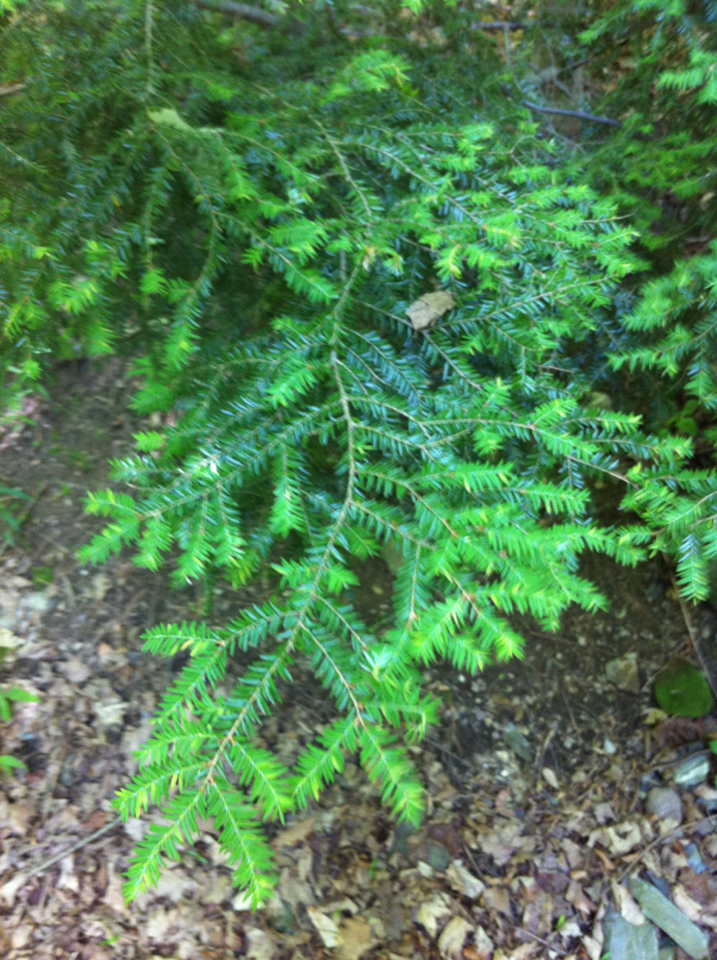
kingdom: Plantae
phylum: Tracheophyta
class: Pinopsida
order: Pinales
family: Pinaceae
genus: Tsuga
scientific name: Tsuga canadensis
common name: Eastern hemlock
